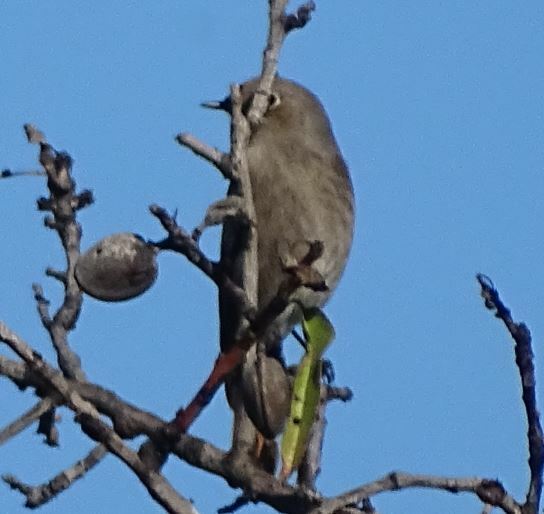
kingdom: Animalia
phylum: Chordata
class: Aves
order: Passeriformes
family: Muscicapidae
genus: Phoenicurus
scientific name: Phoenicurus ochruros
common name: Black redstart
